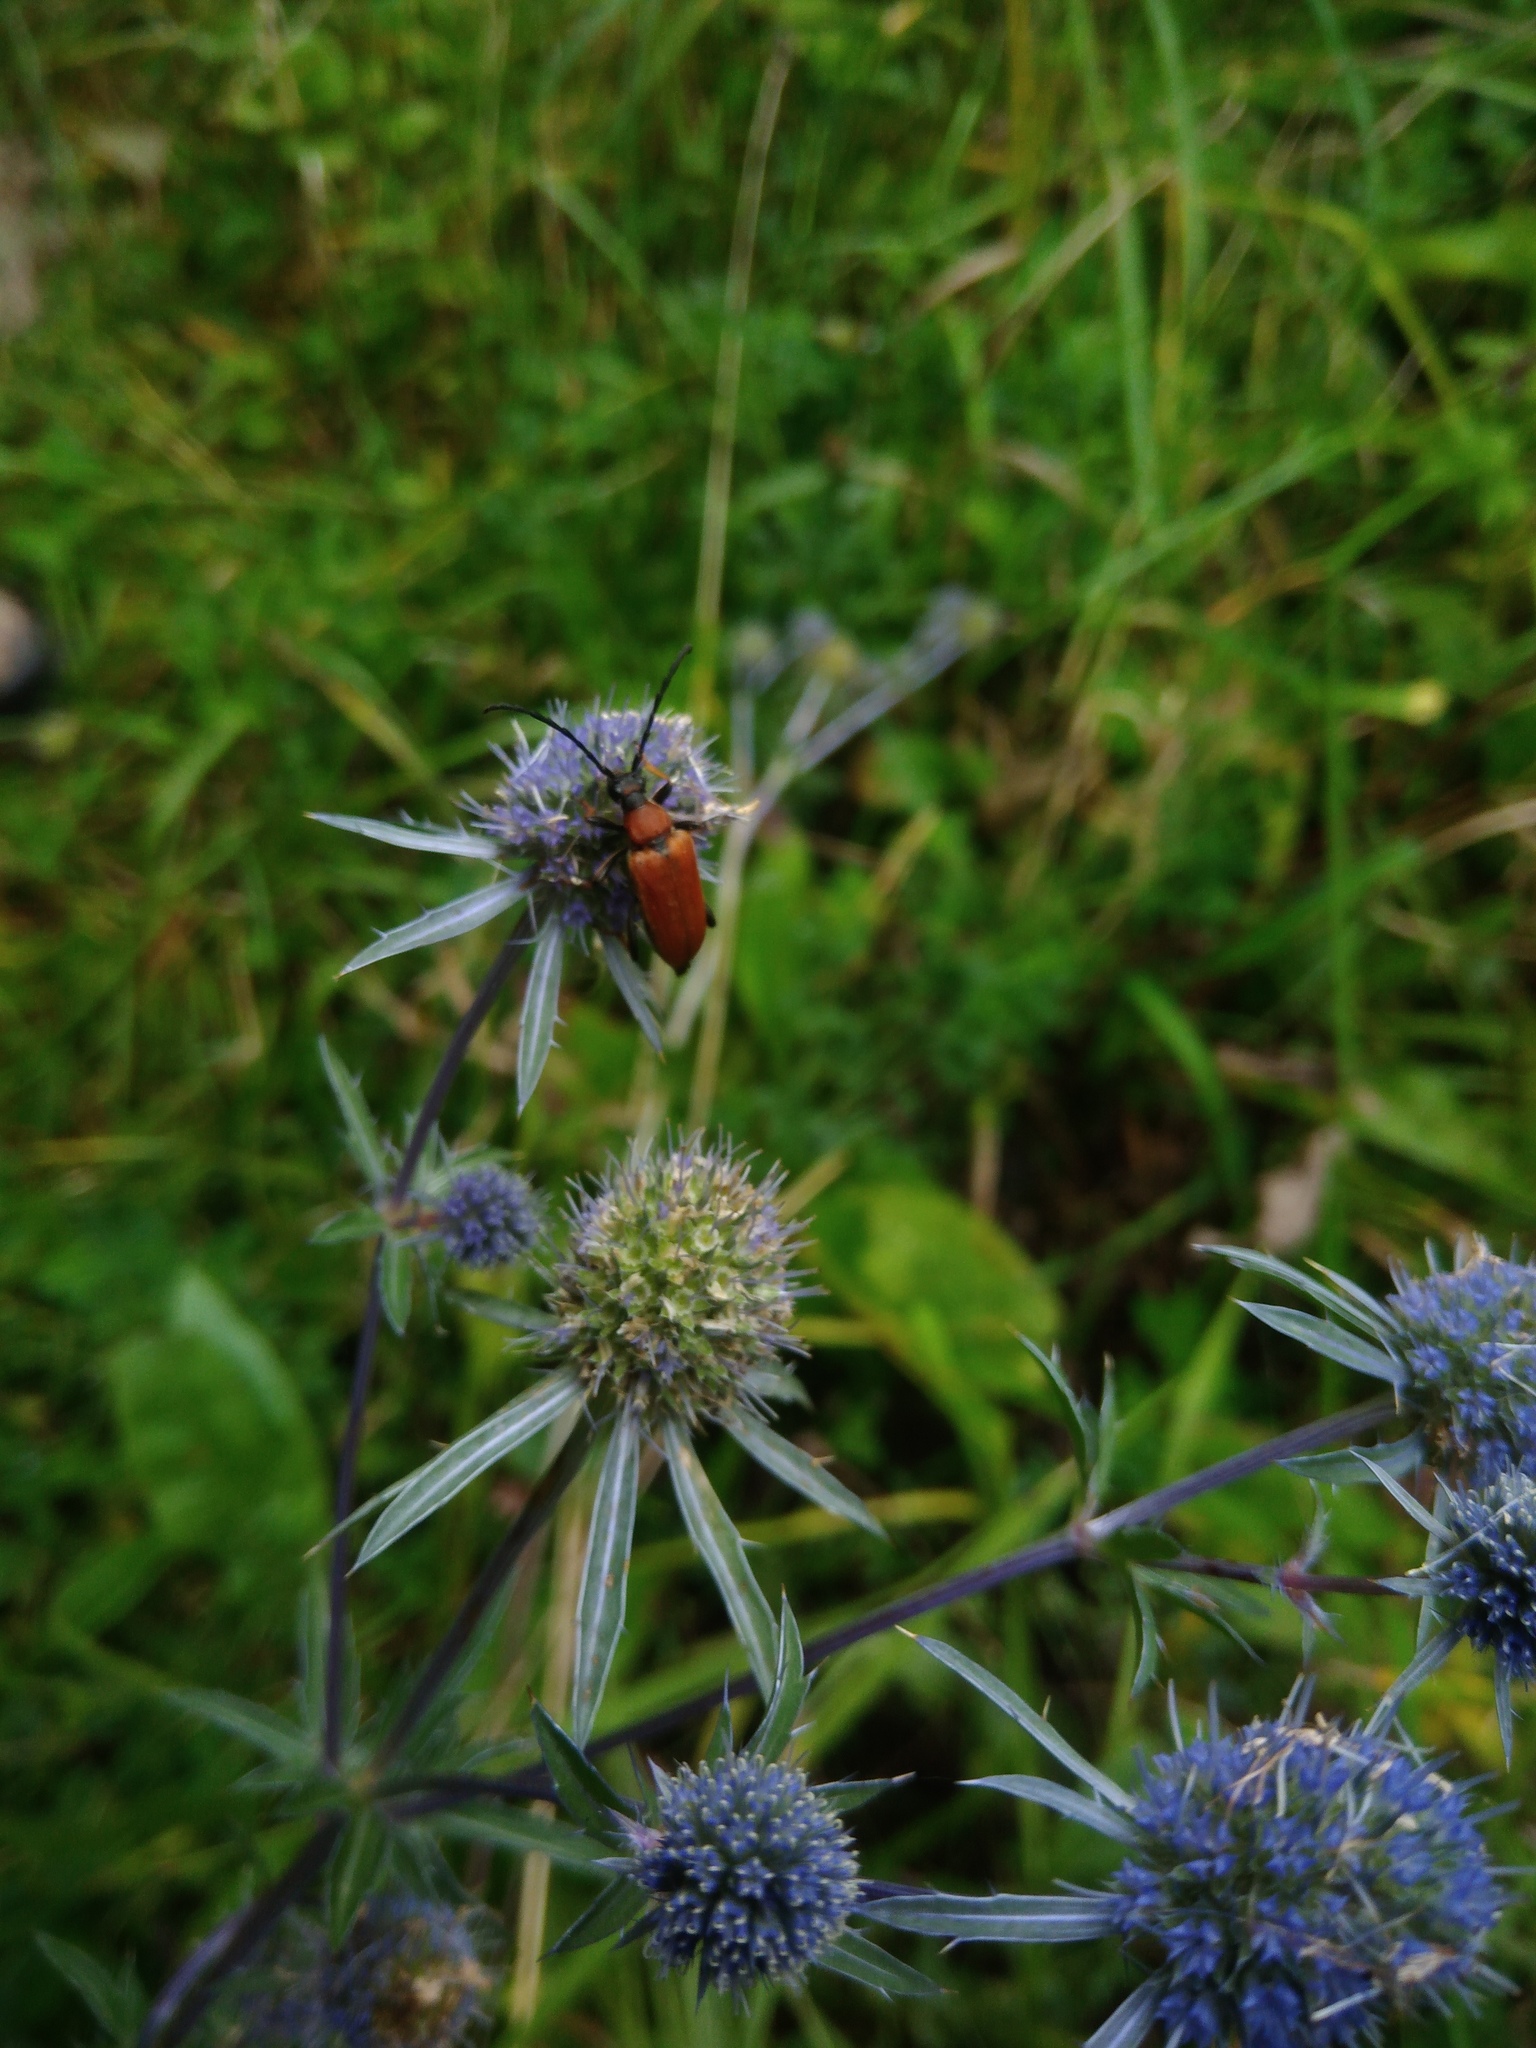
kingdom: Plantae
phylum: Tracheophyta
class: Magnoliopsida
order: Apiales
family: Apiaceae
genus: Eryngium
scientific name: Eryngium planum
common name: Blue eryngo
